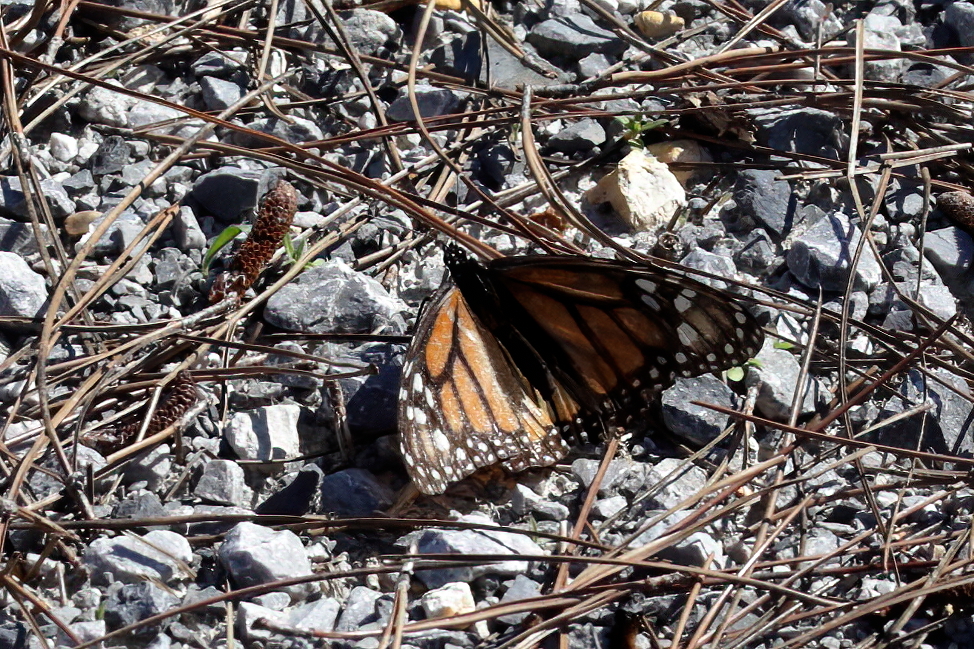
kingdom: Animalia
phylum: Arthropoda
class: Insecta
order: Lepidoptera
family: Nymphalidae
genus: Danaus
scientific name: Danaus plexippus
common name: Monarch
